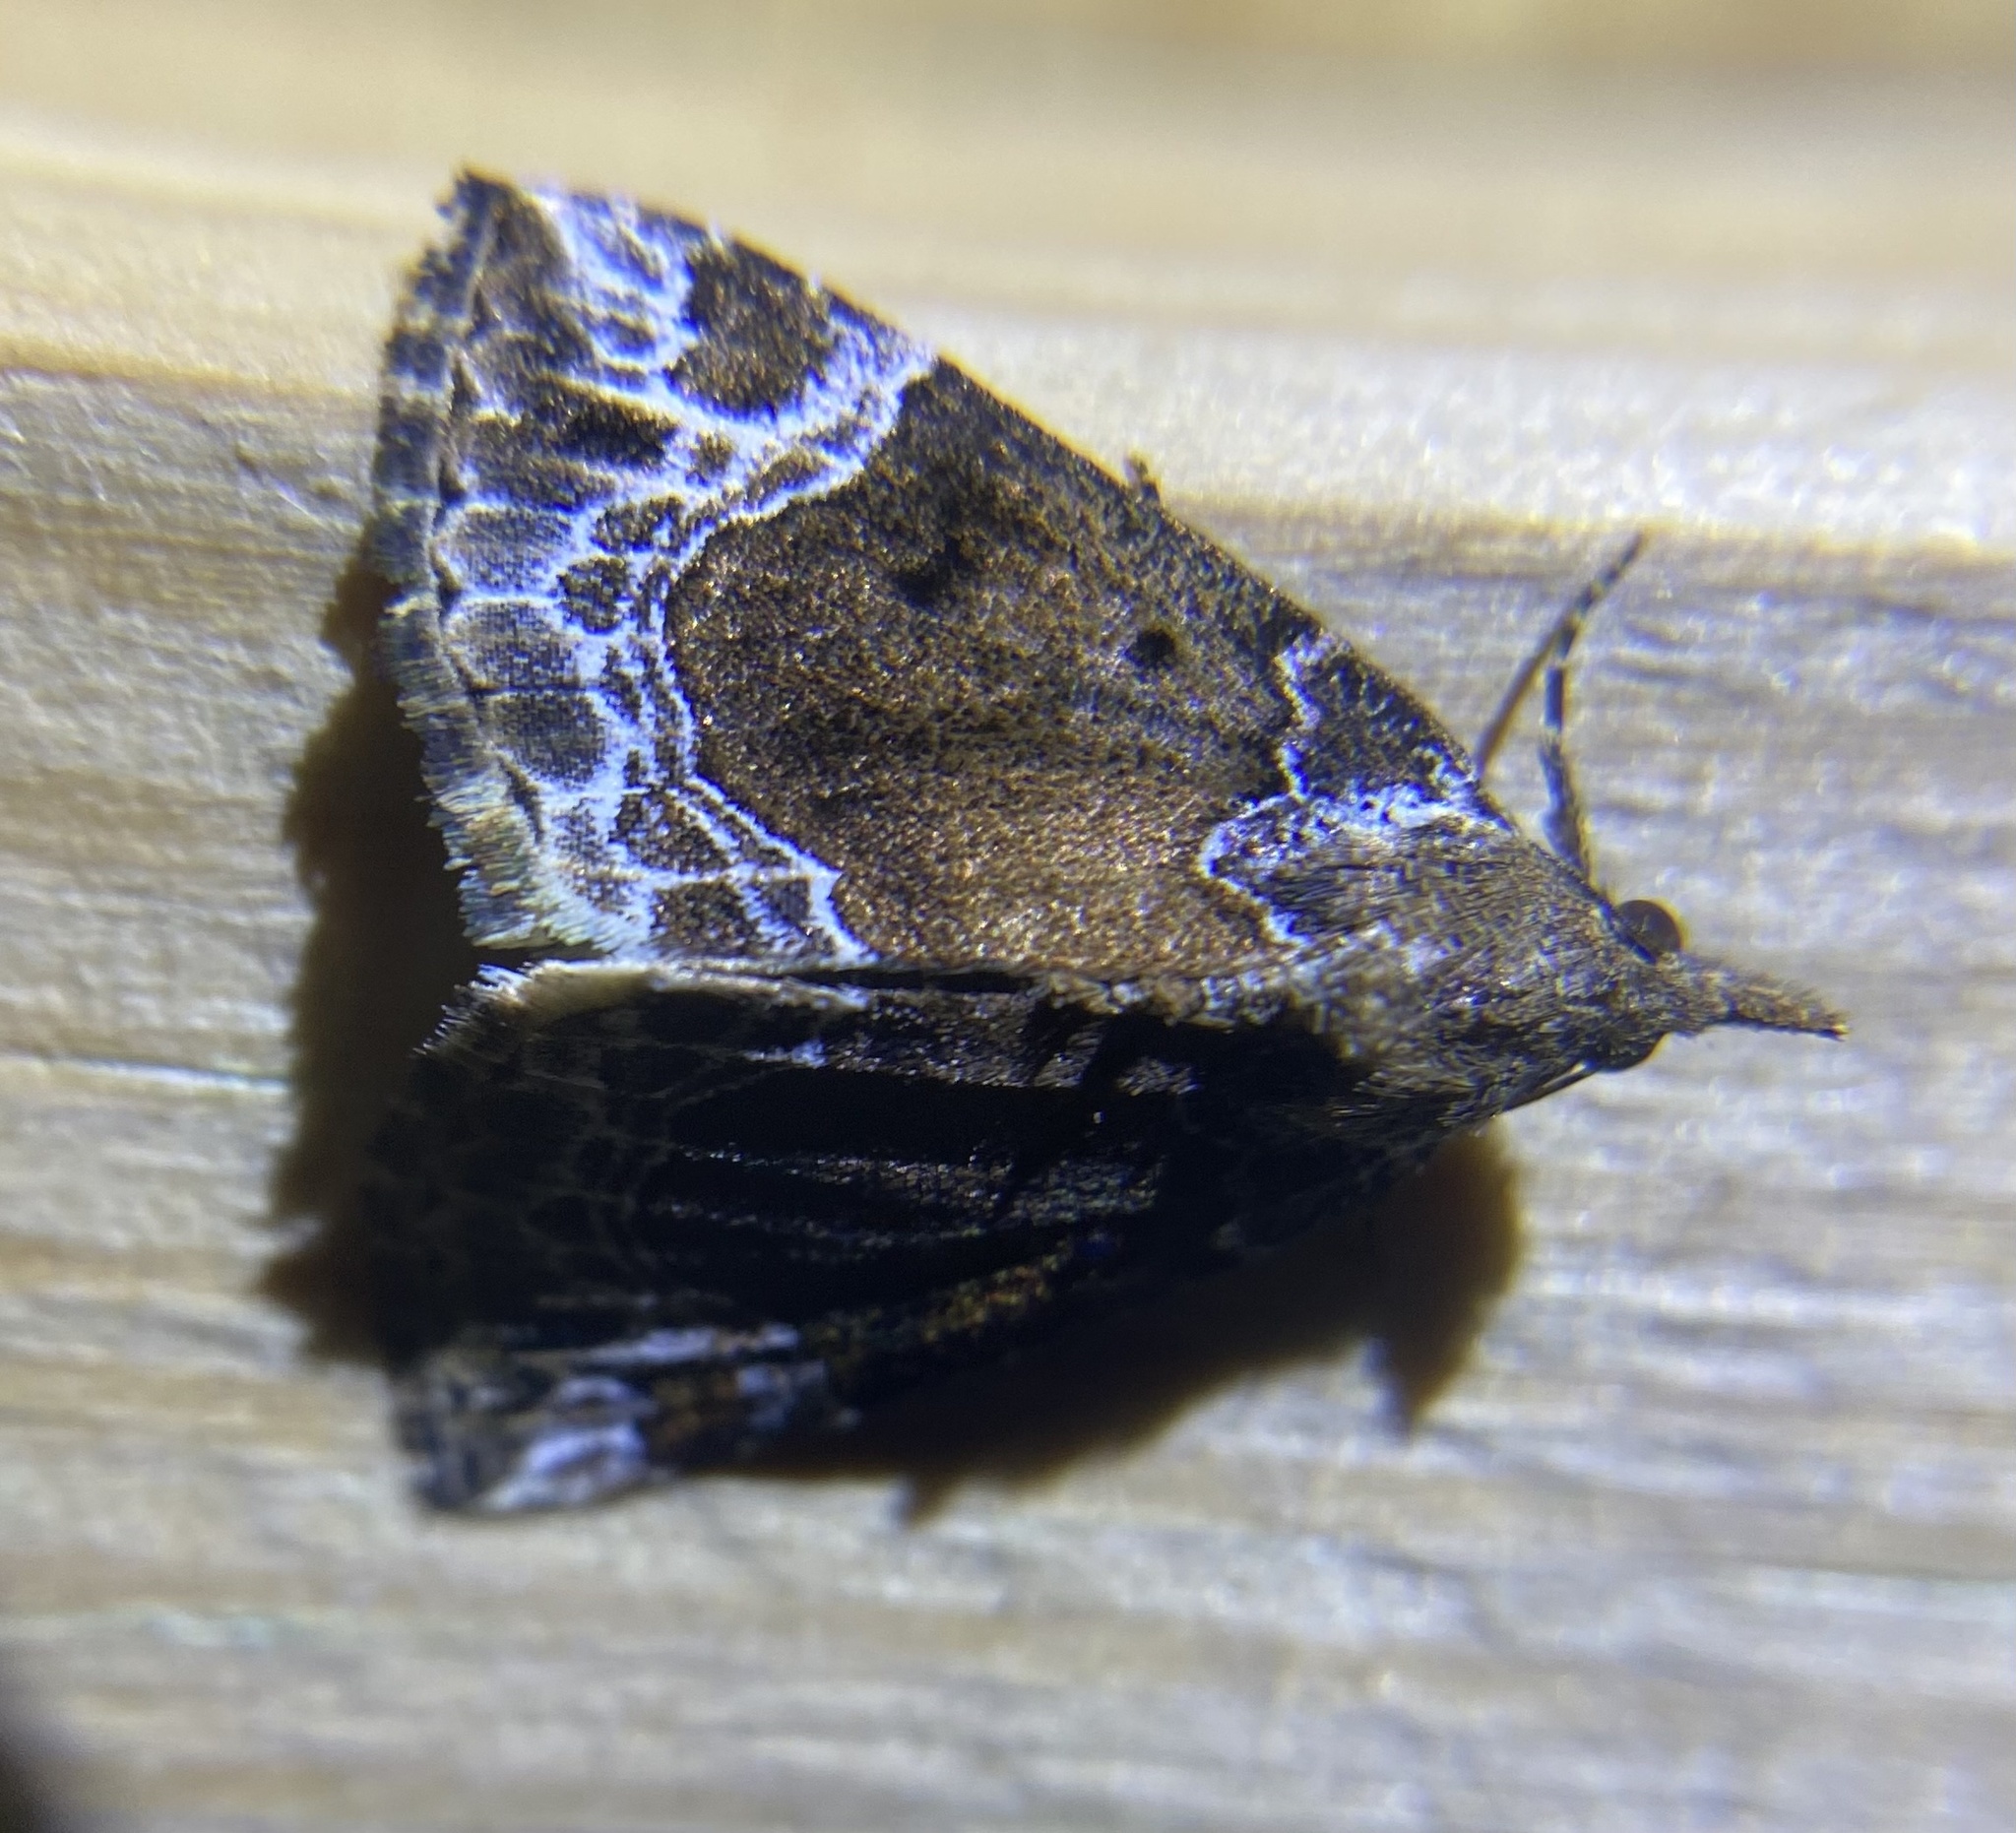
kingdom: Animalia
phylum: Arthropoda
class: Insecta
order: Lepidoptera
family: Erebidae
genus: Hypena
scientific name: Hypena abalienalis
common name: White-lined snout
